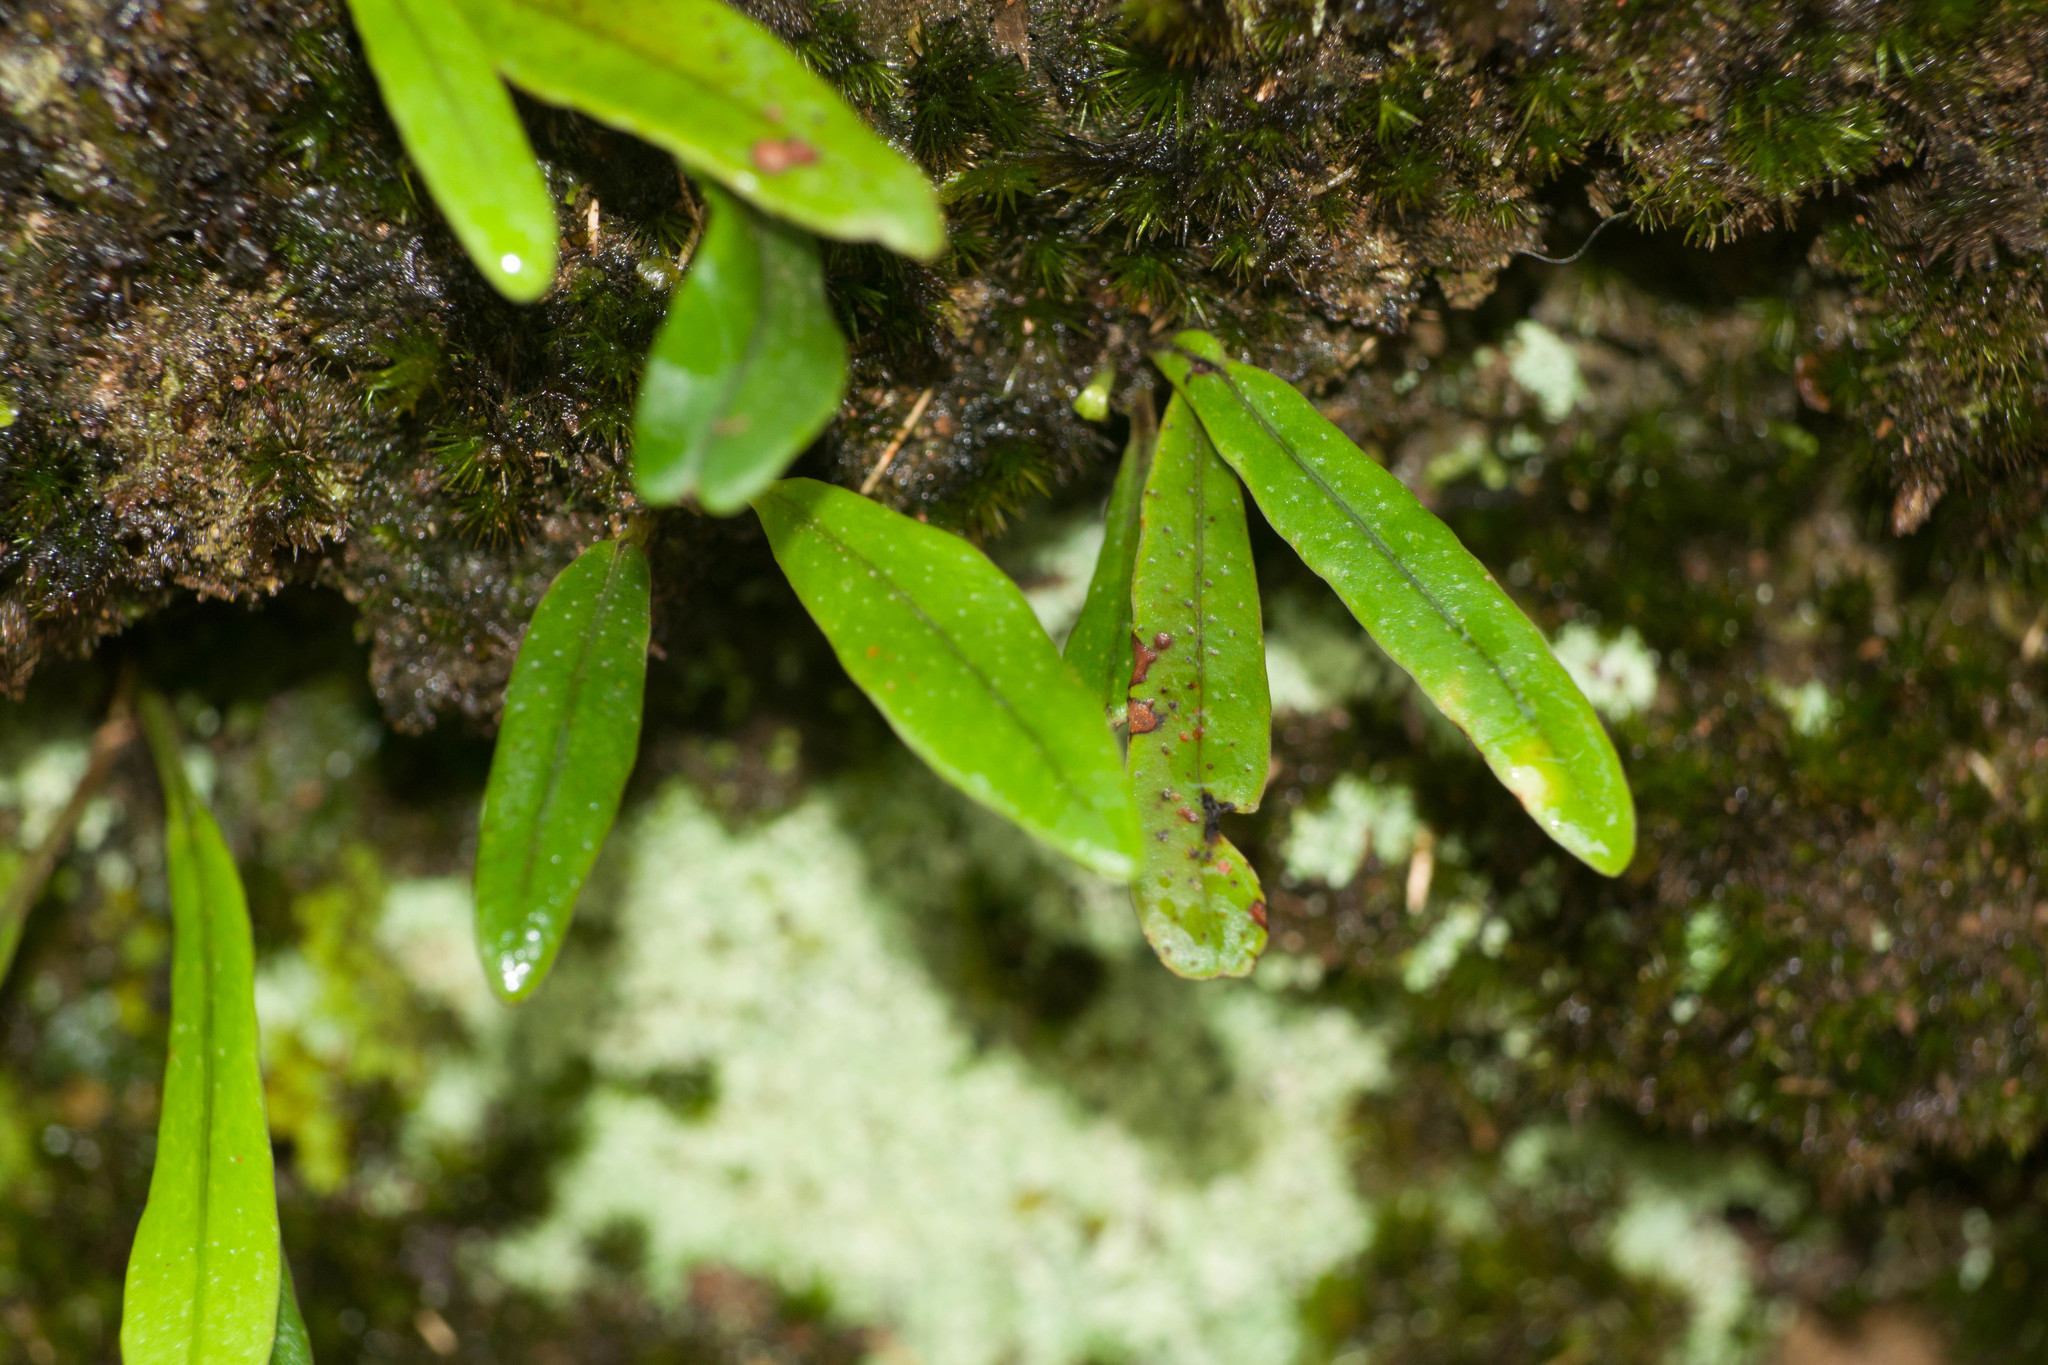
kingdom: Plantae
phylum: Tracheophyta
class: Polypodiopsida
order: Polypodiales
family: Polypodiaceae
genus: Lepisorus
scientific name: Lepisorus thunbergianus
